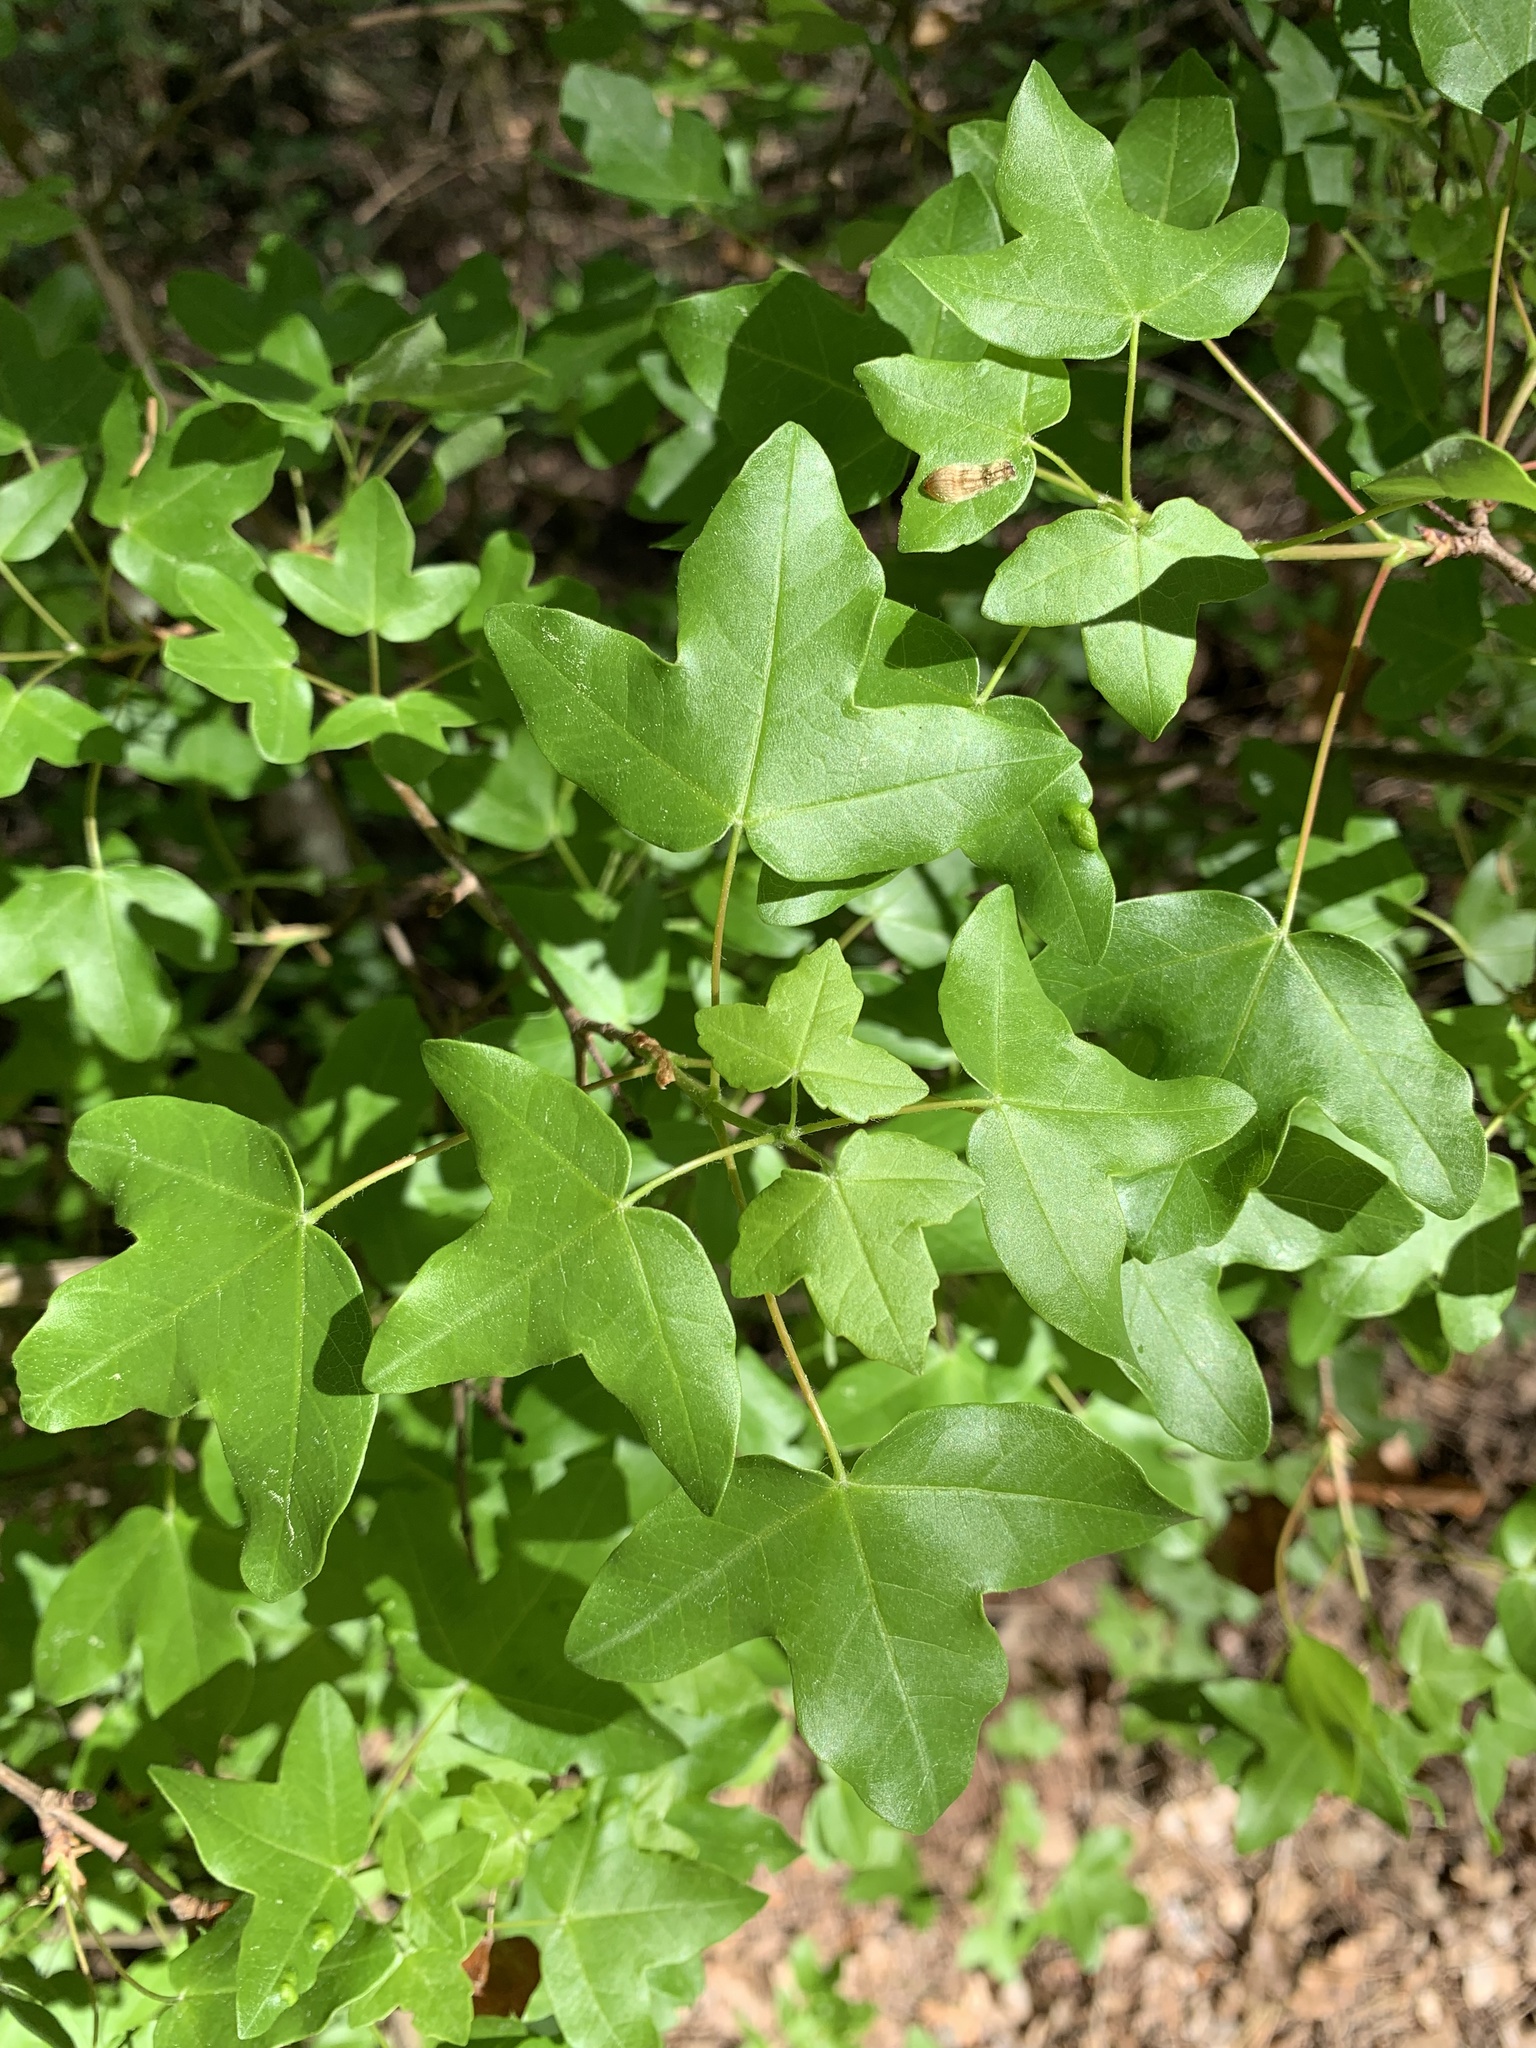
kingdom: Plantae
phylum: Tracheophyta
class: Magnoliopsida
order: Sapindales
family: Sapindaceae
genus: Acer
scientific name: Acer monspessulanum
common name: Montpellier maple
